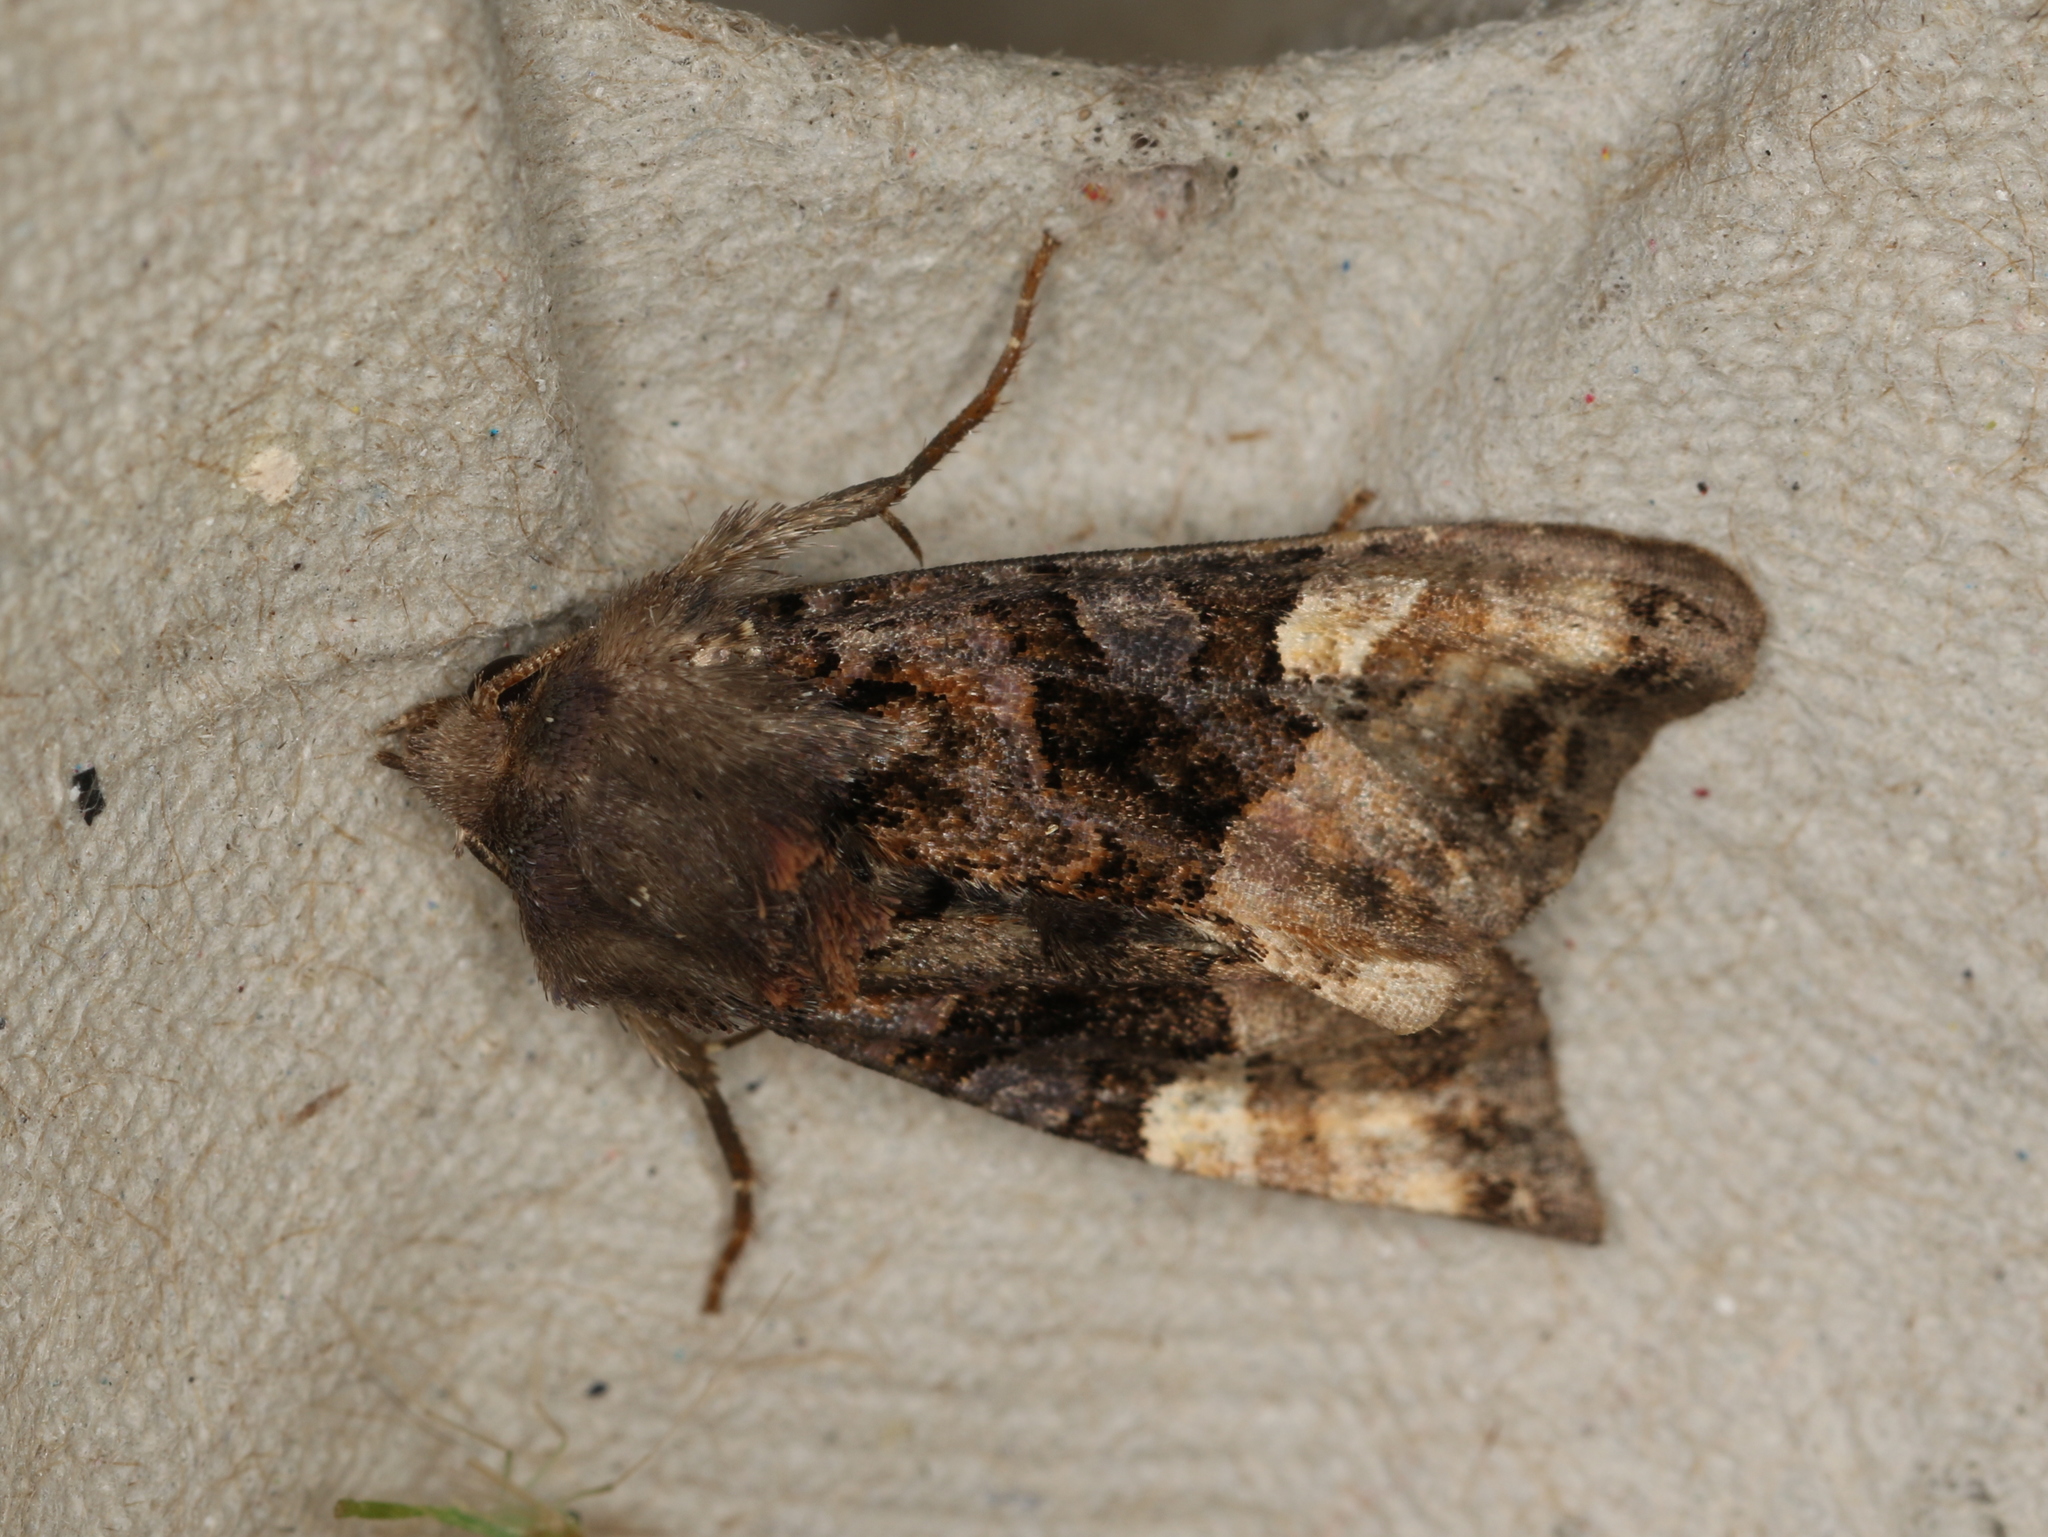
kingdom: Animalia
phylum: Arthropoda
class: Insecta
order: Lepidoptera
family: Noctuidae
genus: Euplexia
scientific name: Euplexia lucipara
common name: Small angle shades
